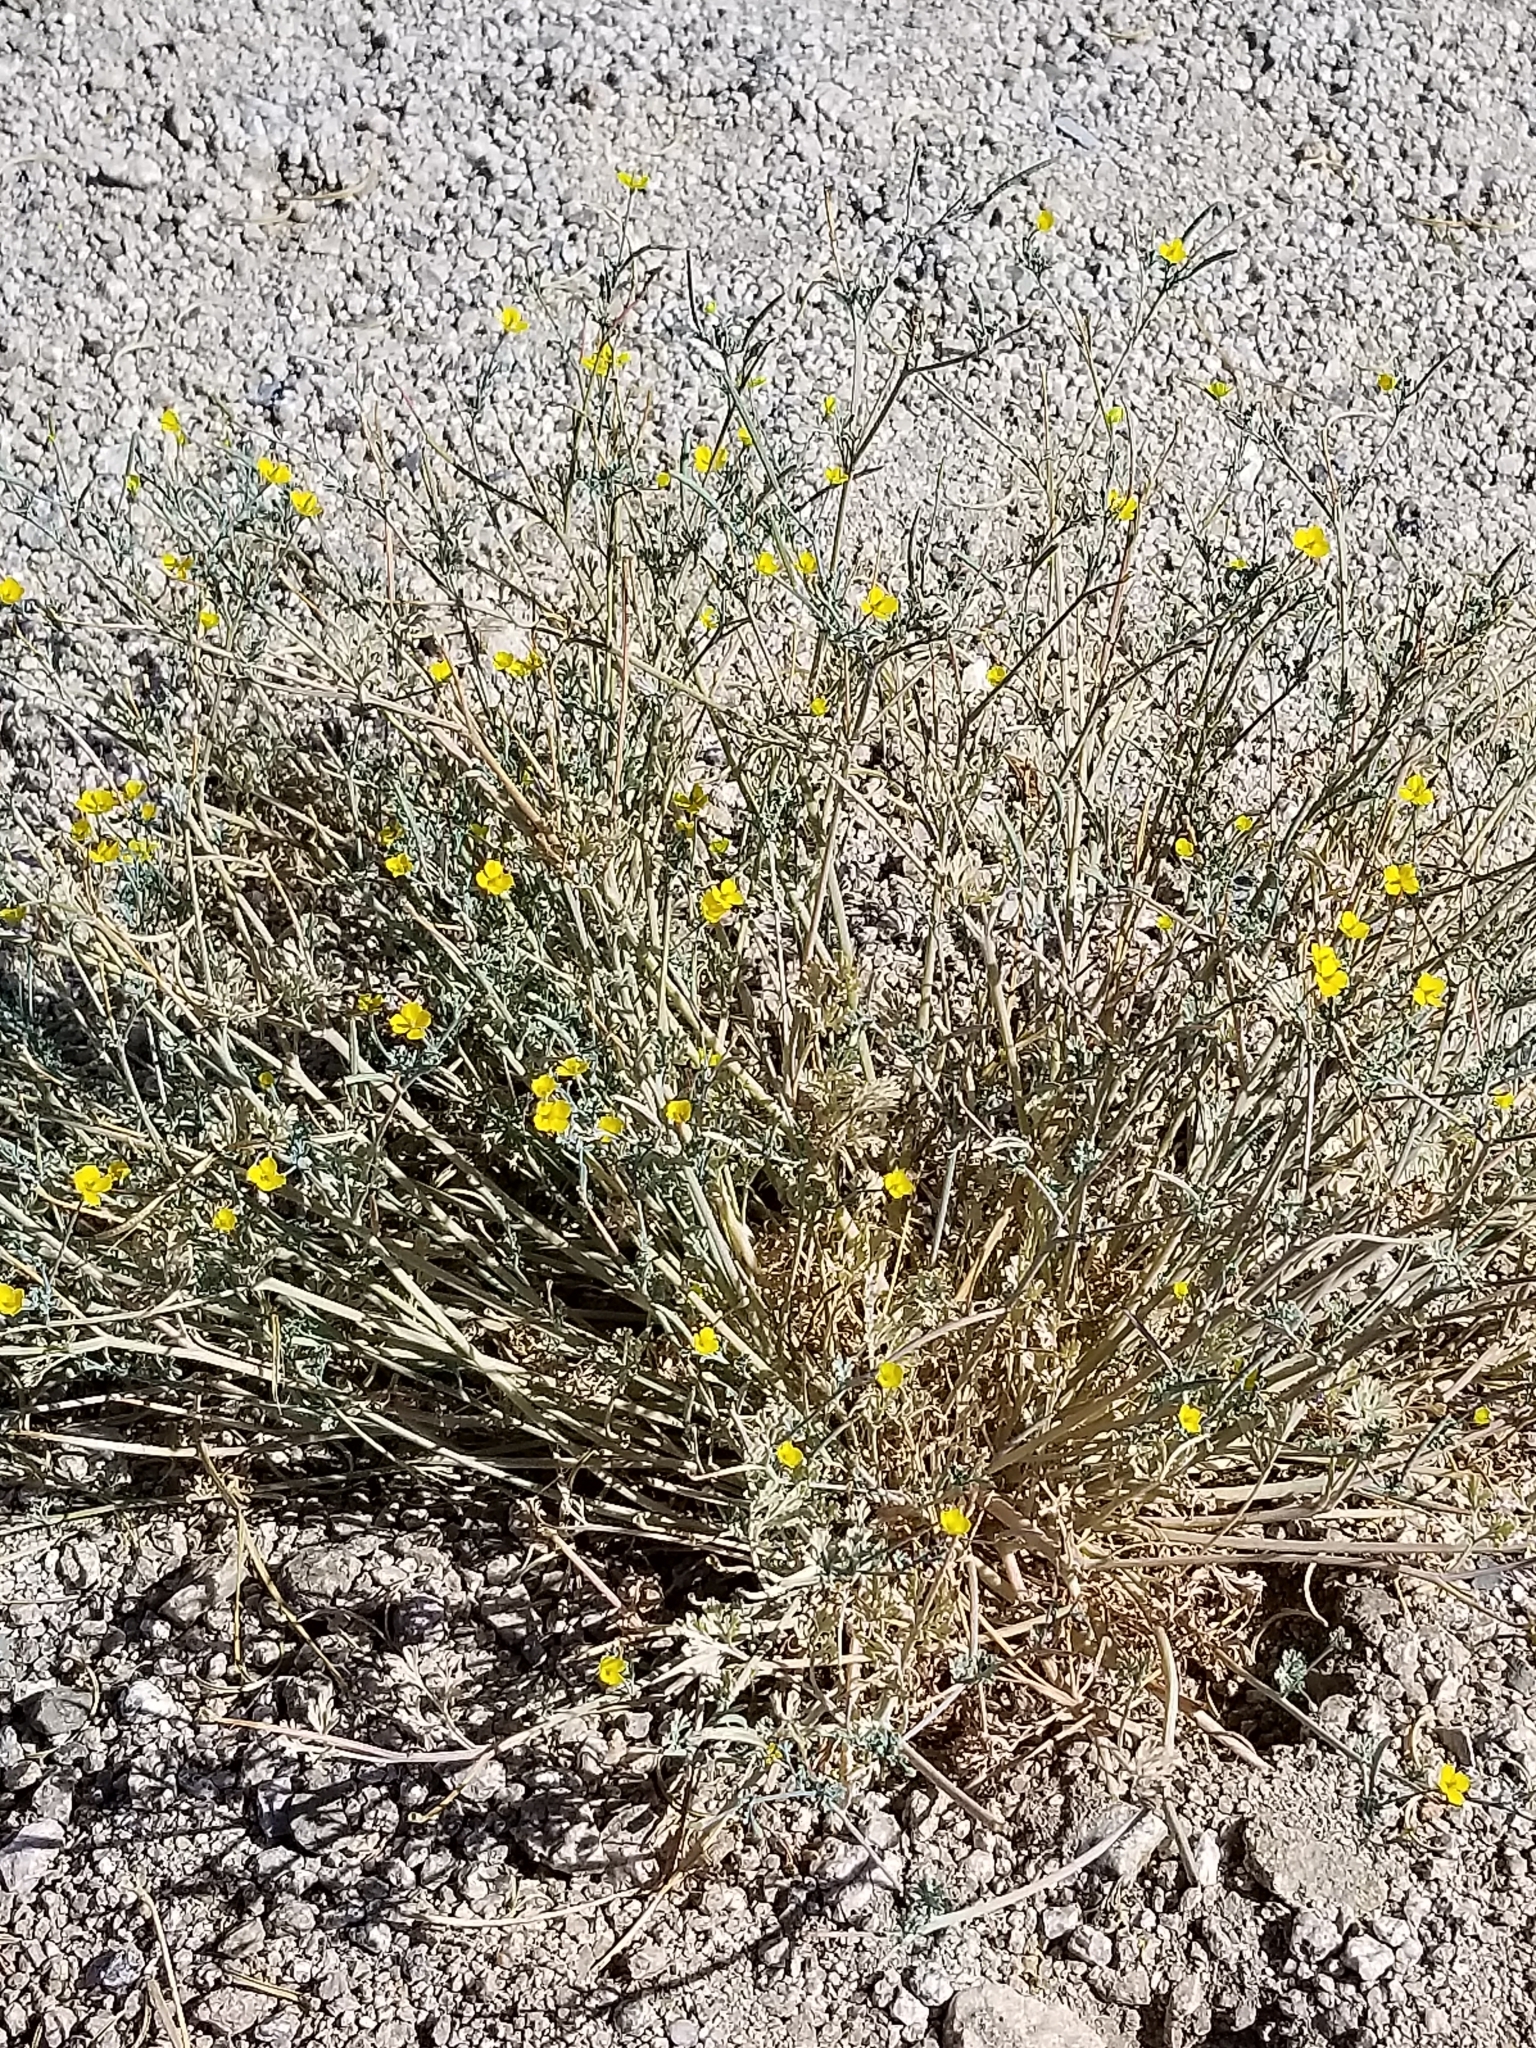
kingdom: Plantae
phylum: Tracheophyta
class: Magnoliopsida
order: Ranunculales
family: Papaveraceae
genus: Eschscholzia
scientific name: Eschscholzia minutiflora
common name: Small-flower california-poppy
